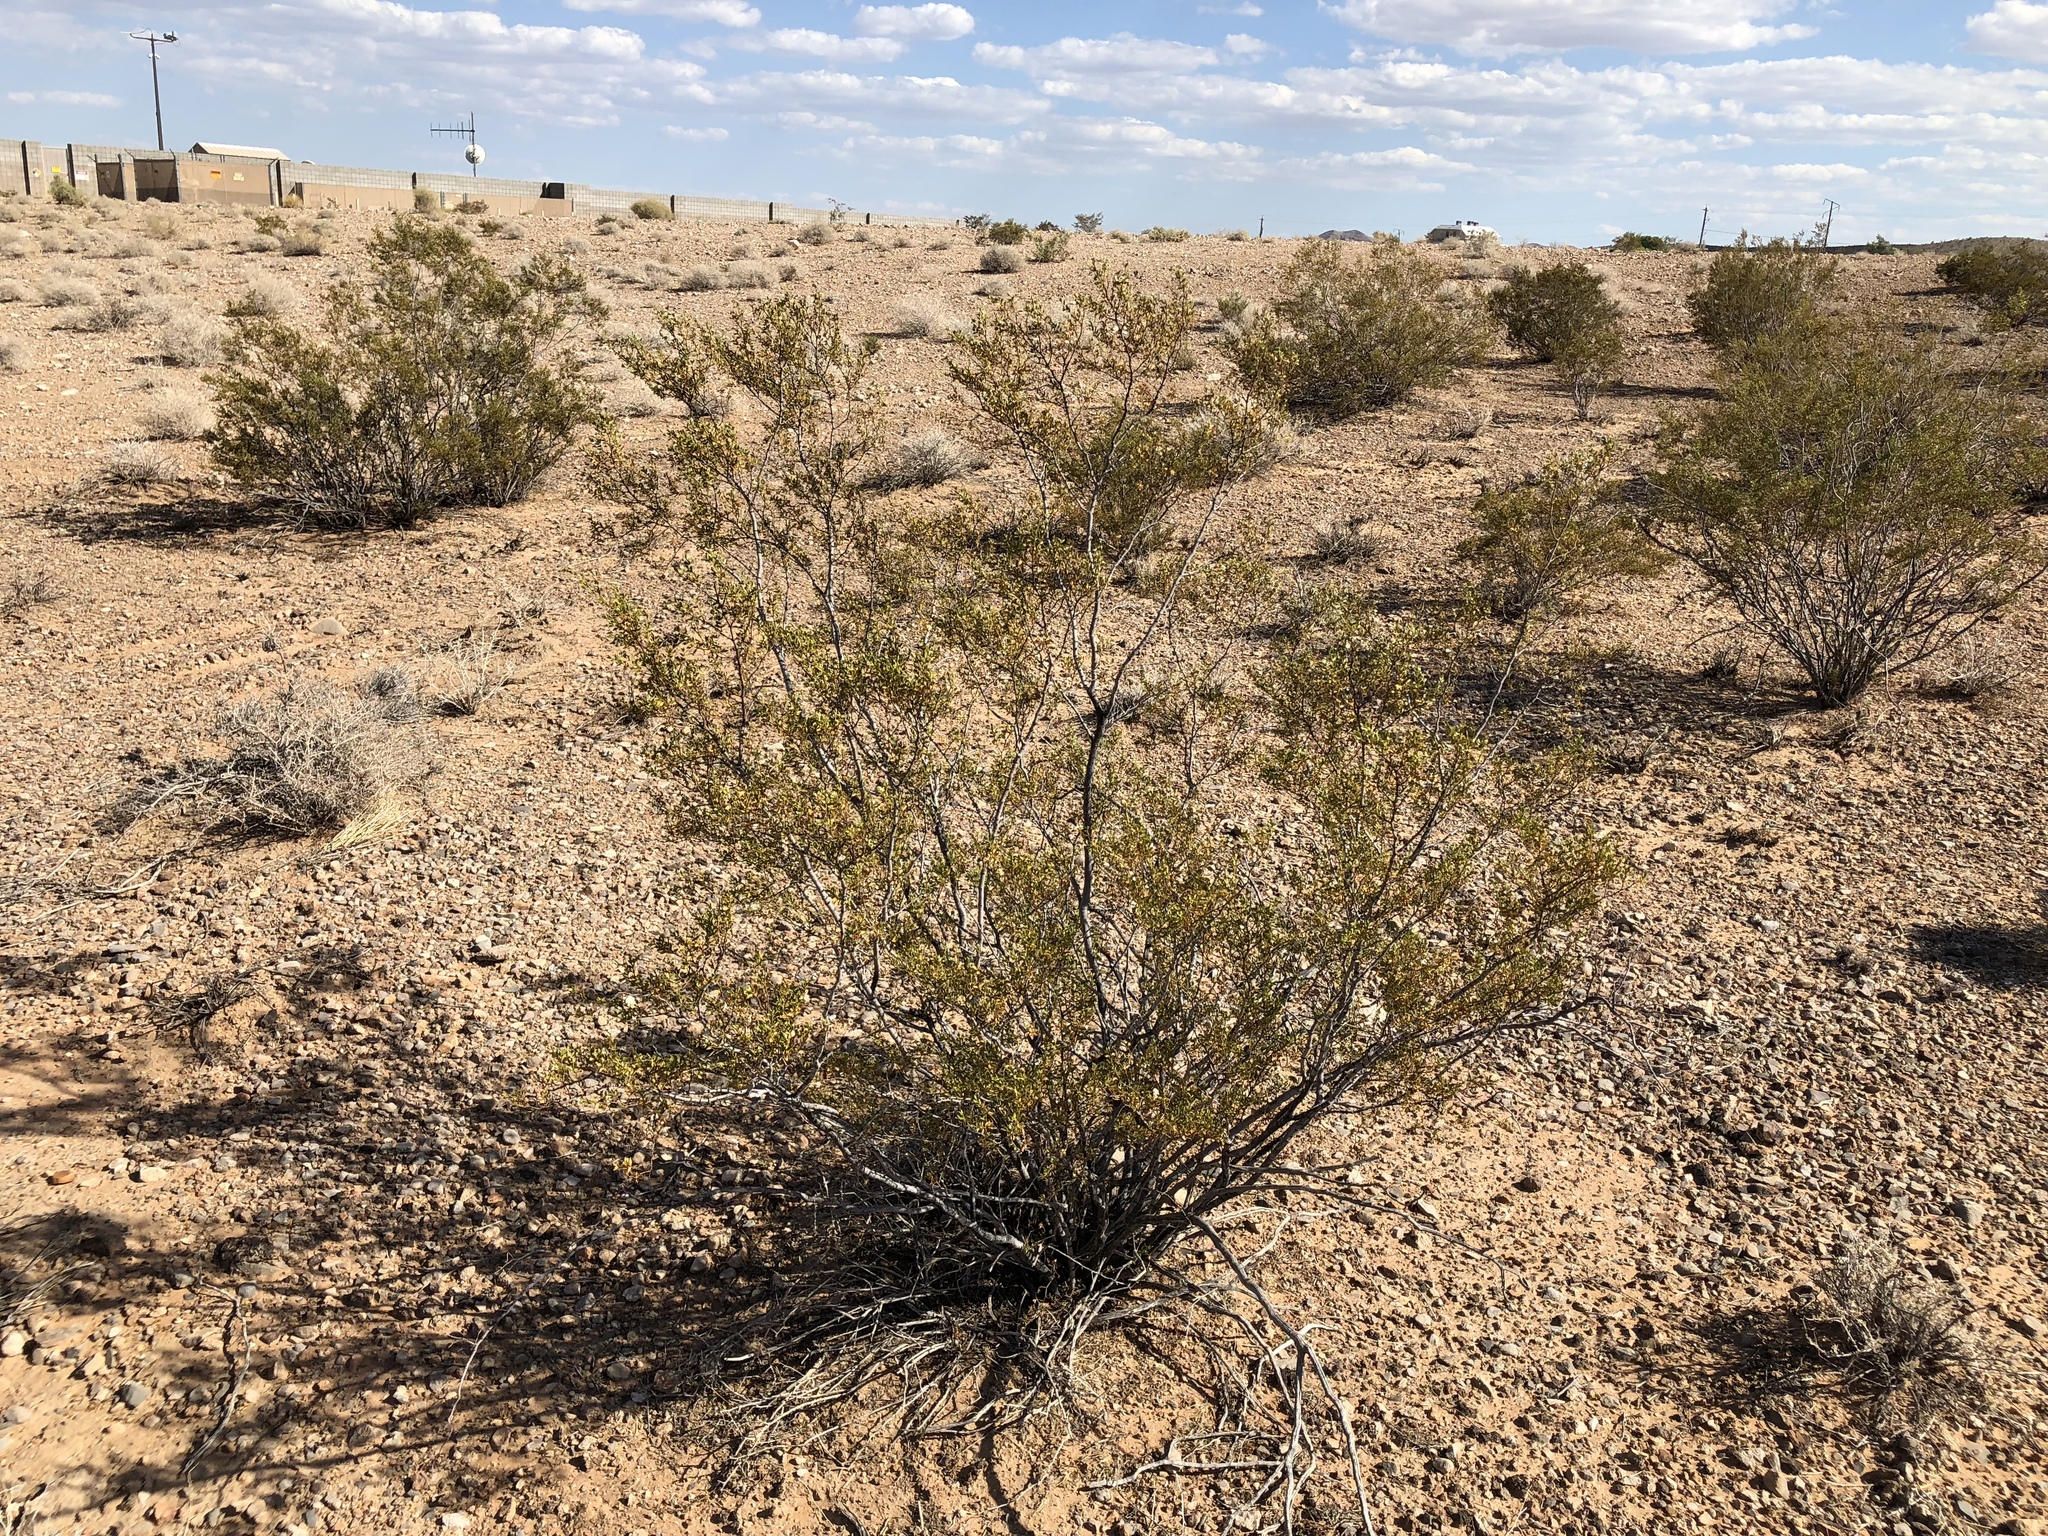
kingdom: Plantae
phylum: Tracheophyta
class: Magnoliopsida
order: Zygophyllales
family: Zygophyllaceae
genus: Larrea
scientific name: Larrea tridentata
